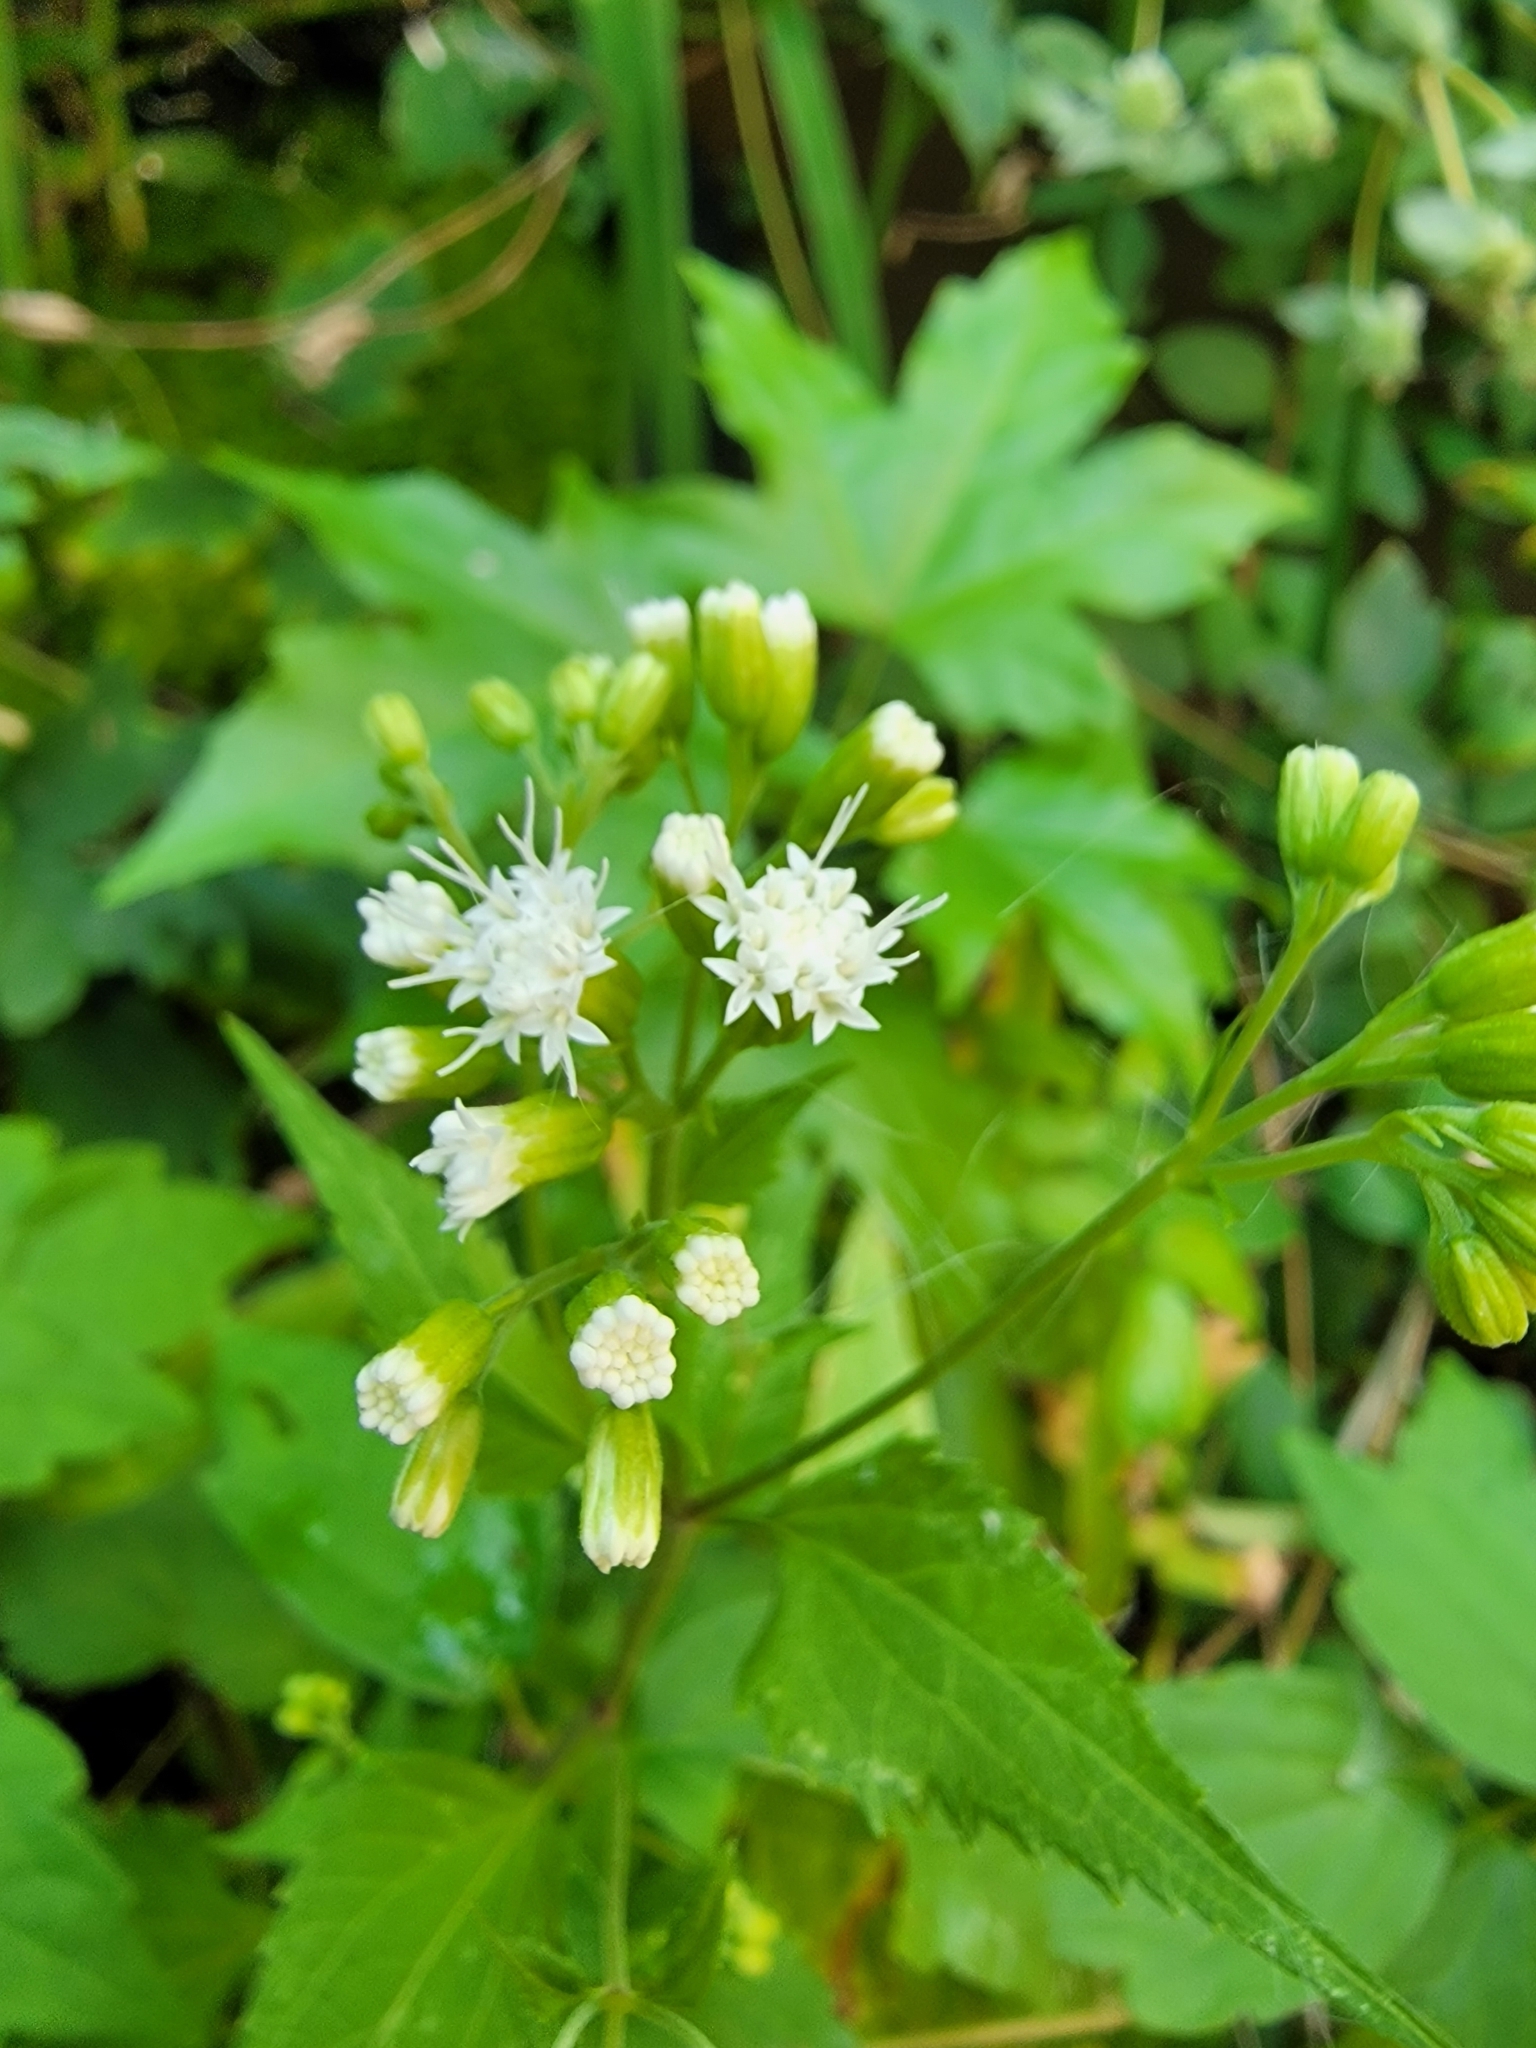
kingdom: Plantae
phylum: Tracheophyta
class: Magnoliopsida
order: Asterales
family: Asteraceae
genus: Ageratina
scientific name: Ageratina altissima
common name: White snakeroot
